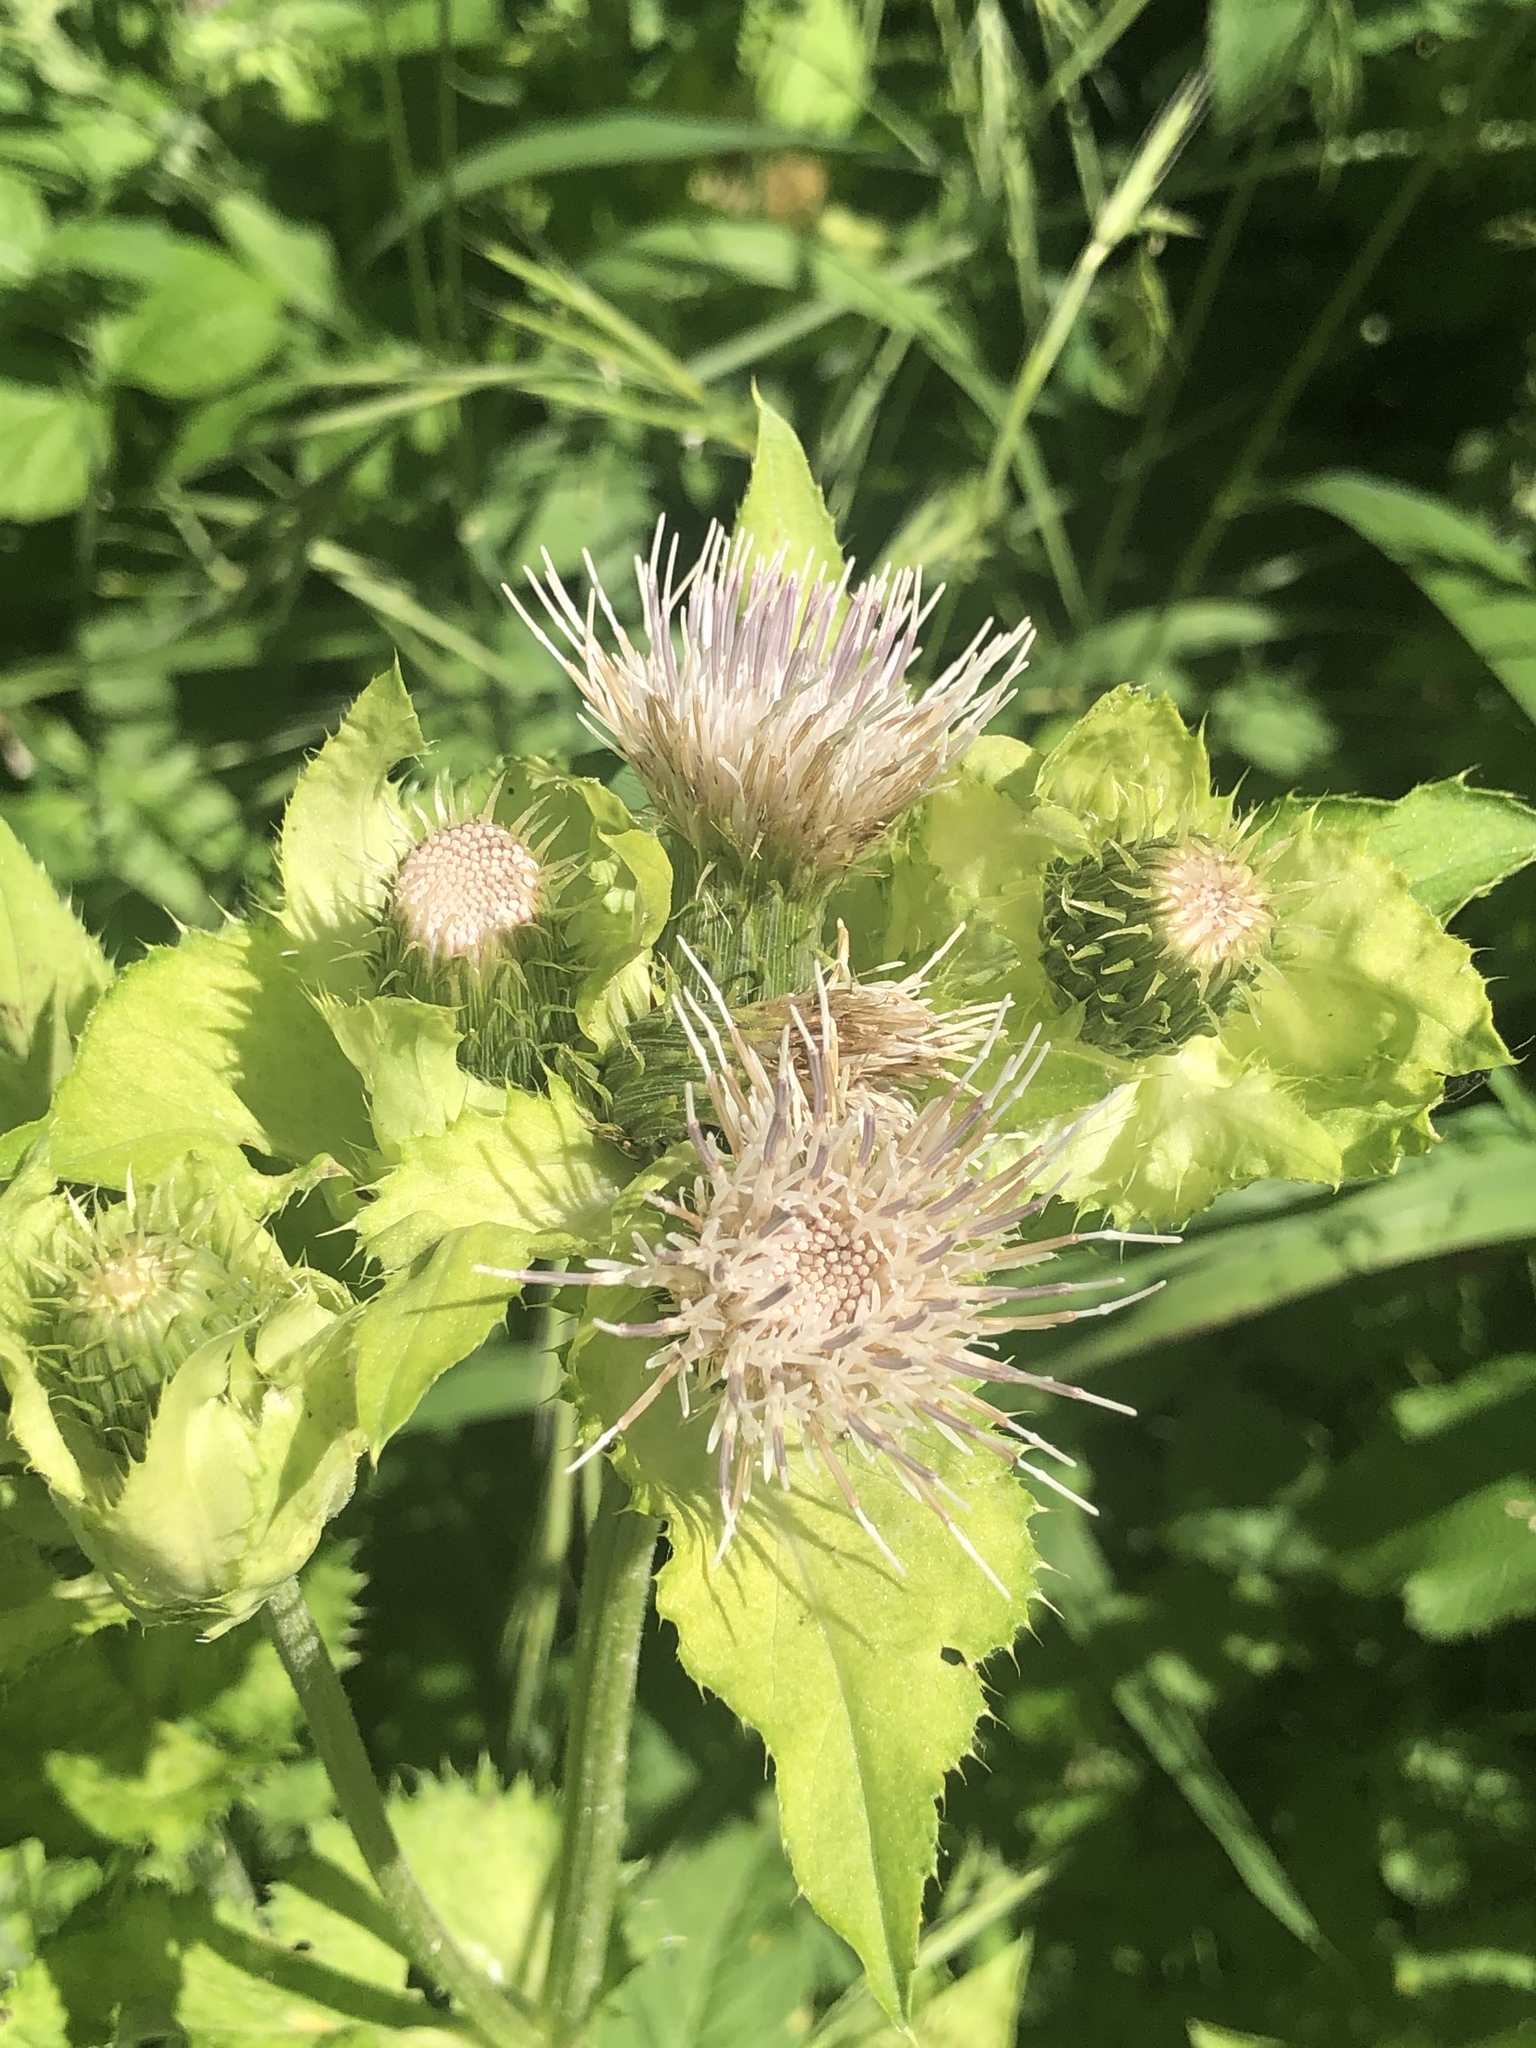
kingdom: Plantae
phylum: Tracheophyta
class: Magnoliopsida
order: Asterales
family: Asteraceae
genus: Cirsium
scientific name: Cirsium oleraceum
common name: Cabbage thistle
